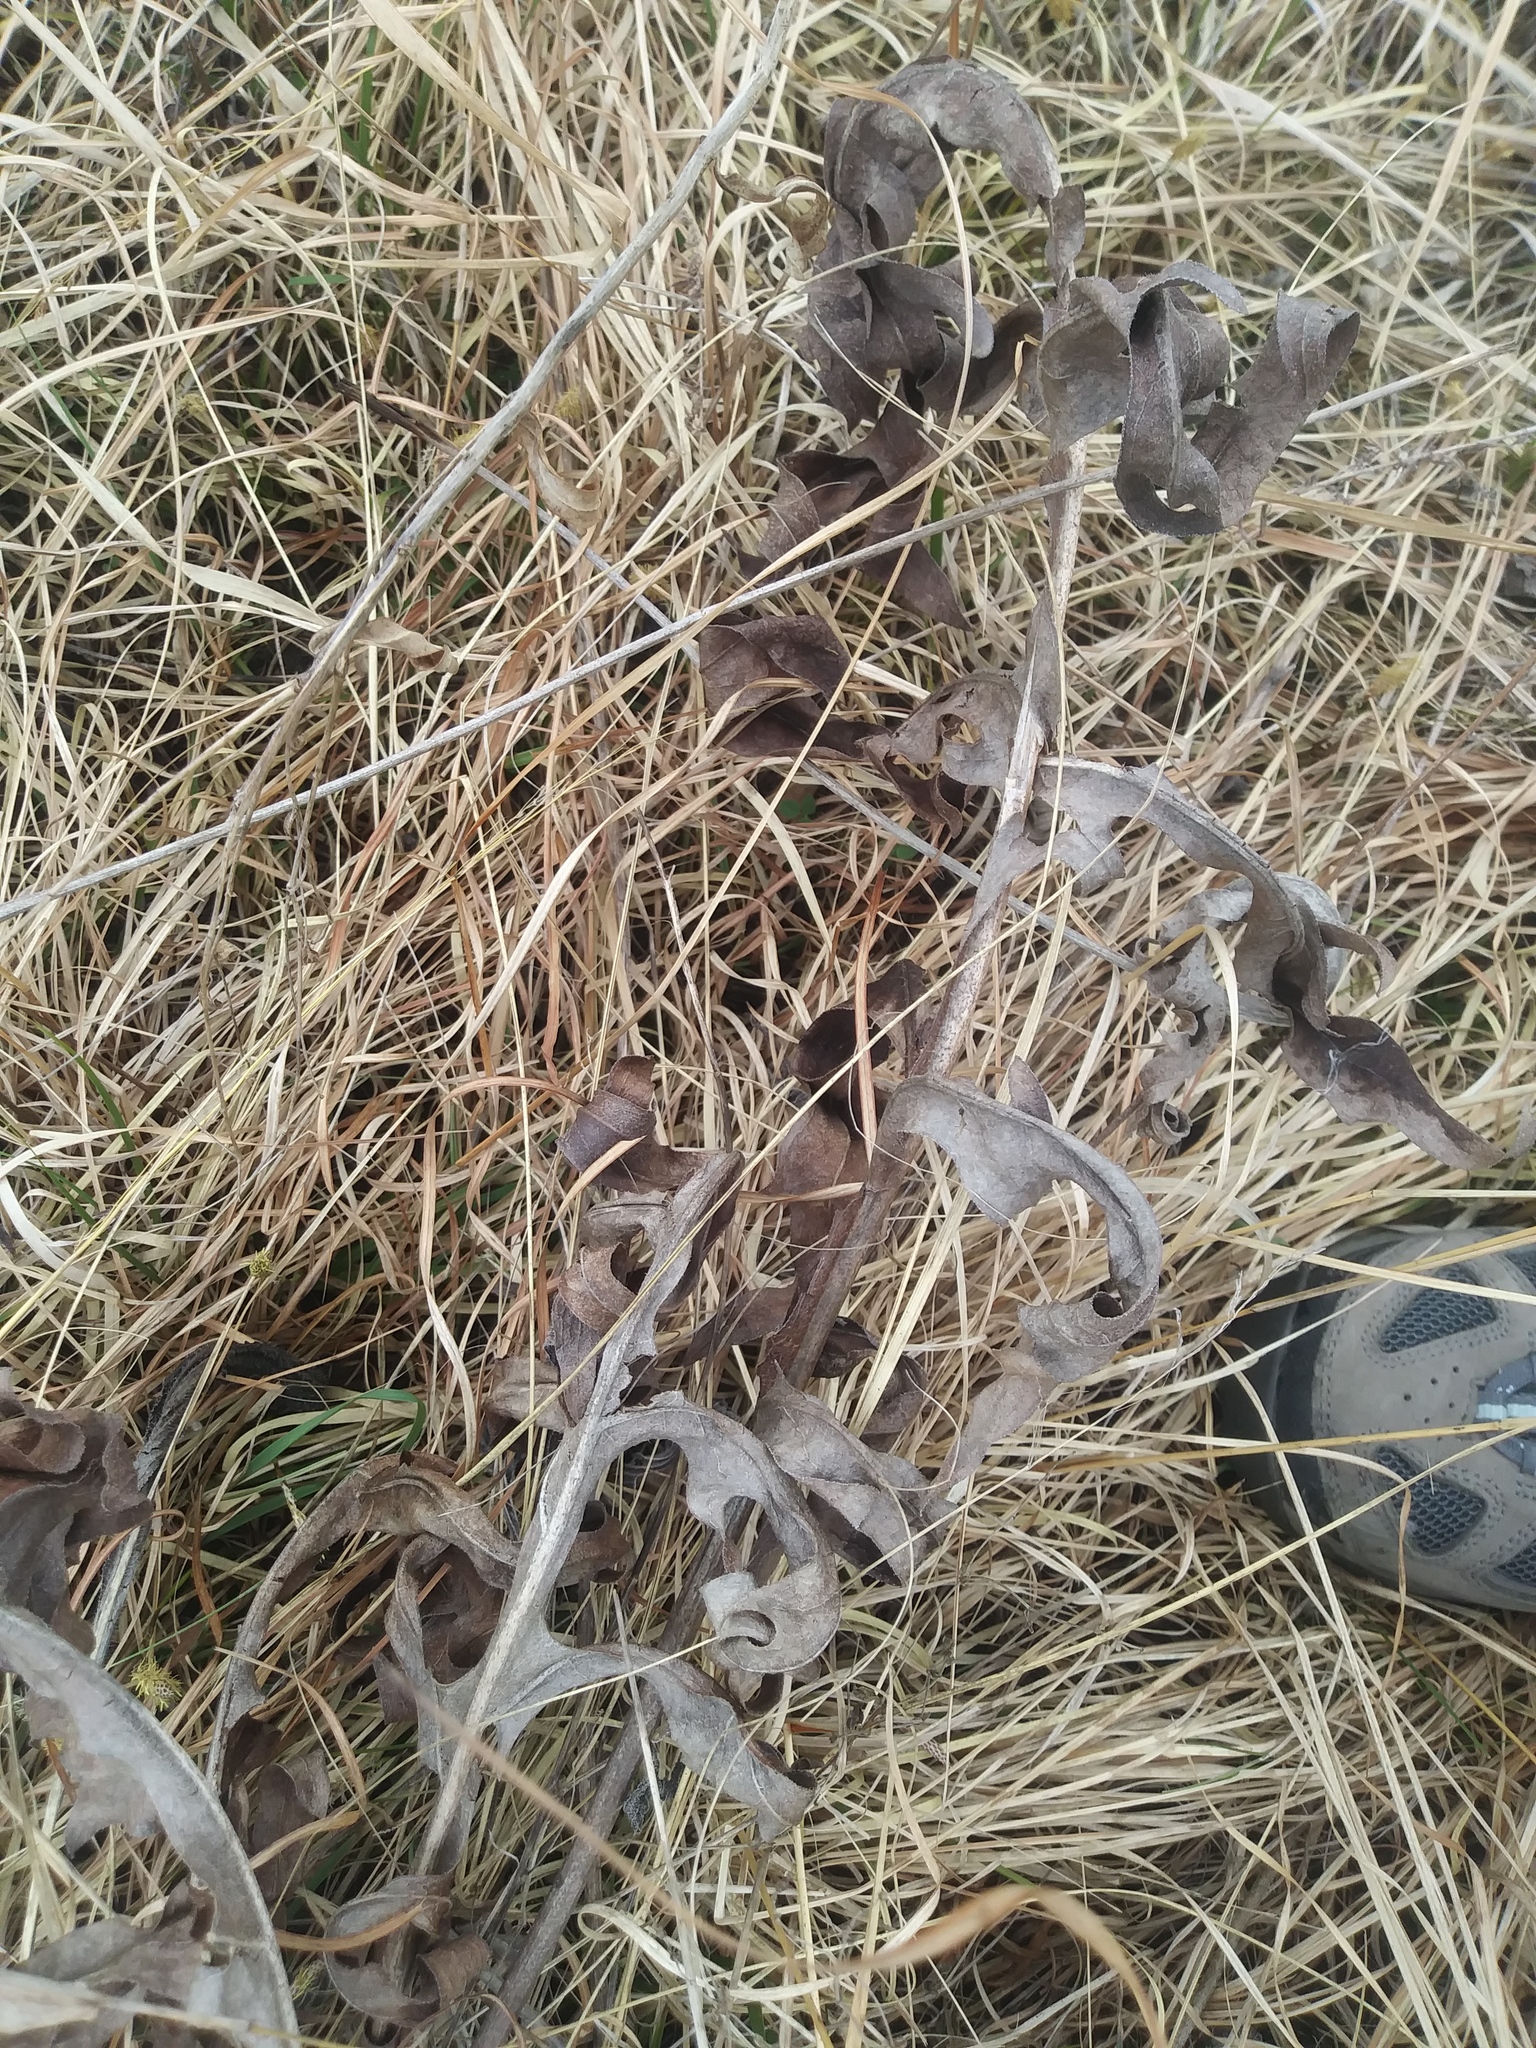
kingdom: Plantae
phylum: Tracheophyta
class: Magnoliopsida
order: Asterales
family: Asteraceae
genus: Silphium
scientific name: Silphium laciniatum
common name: Polarplant
